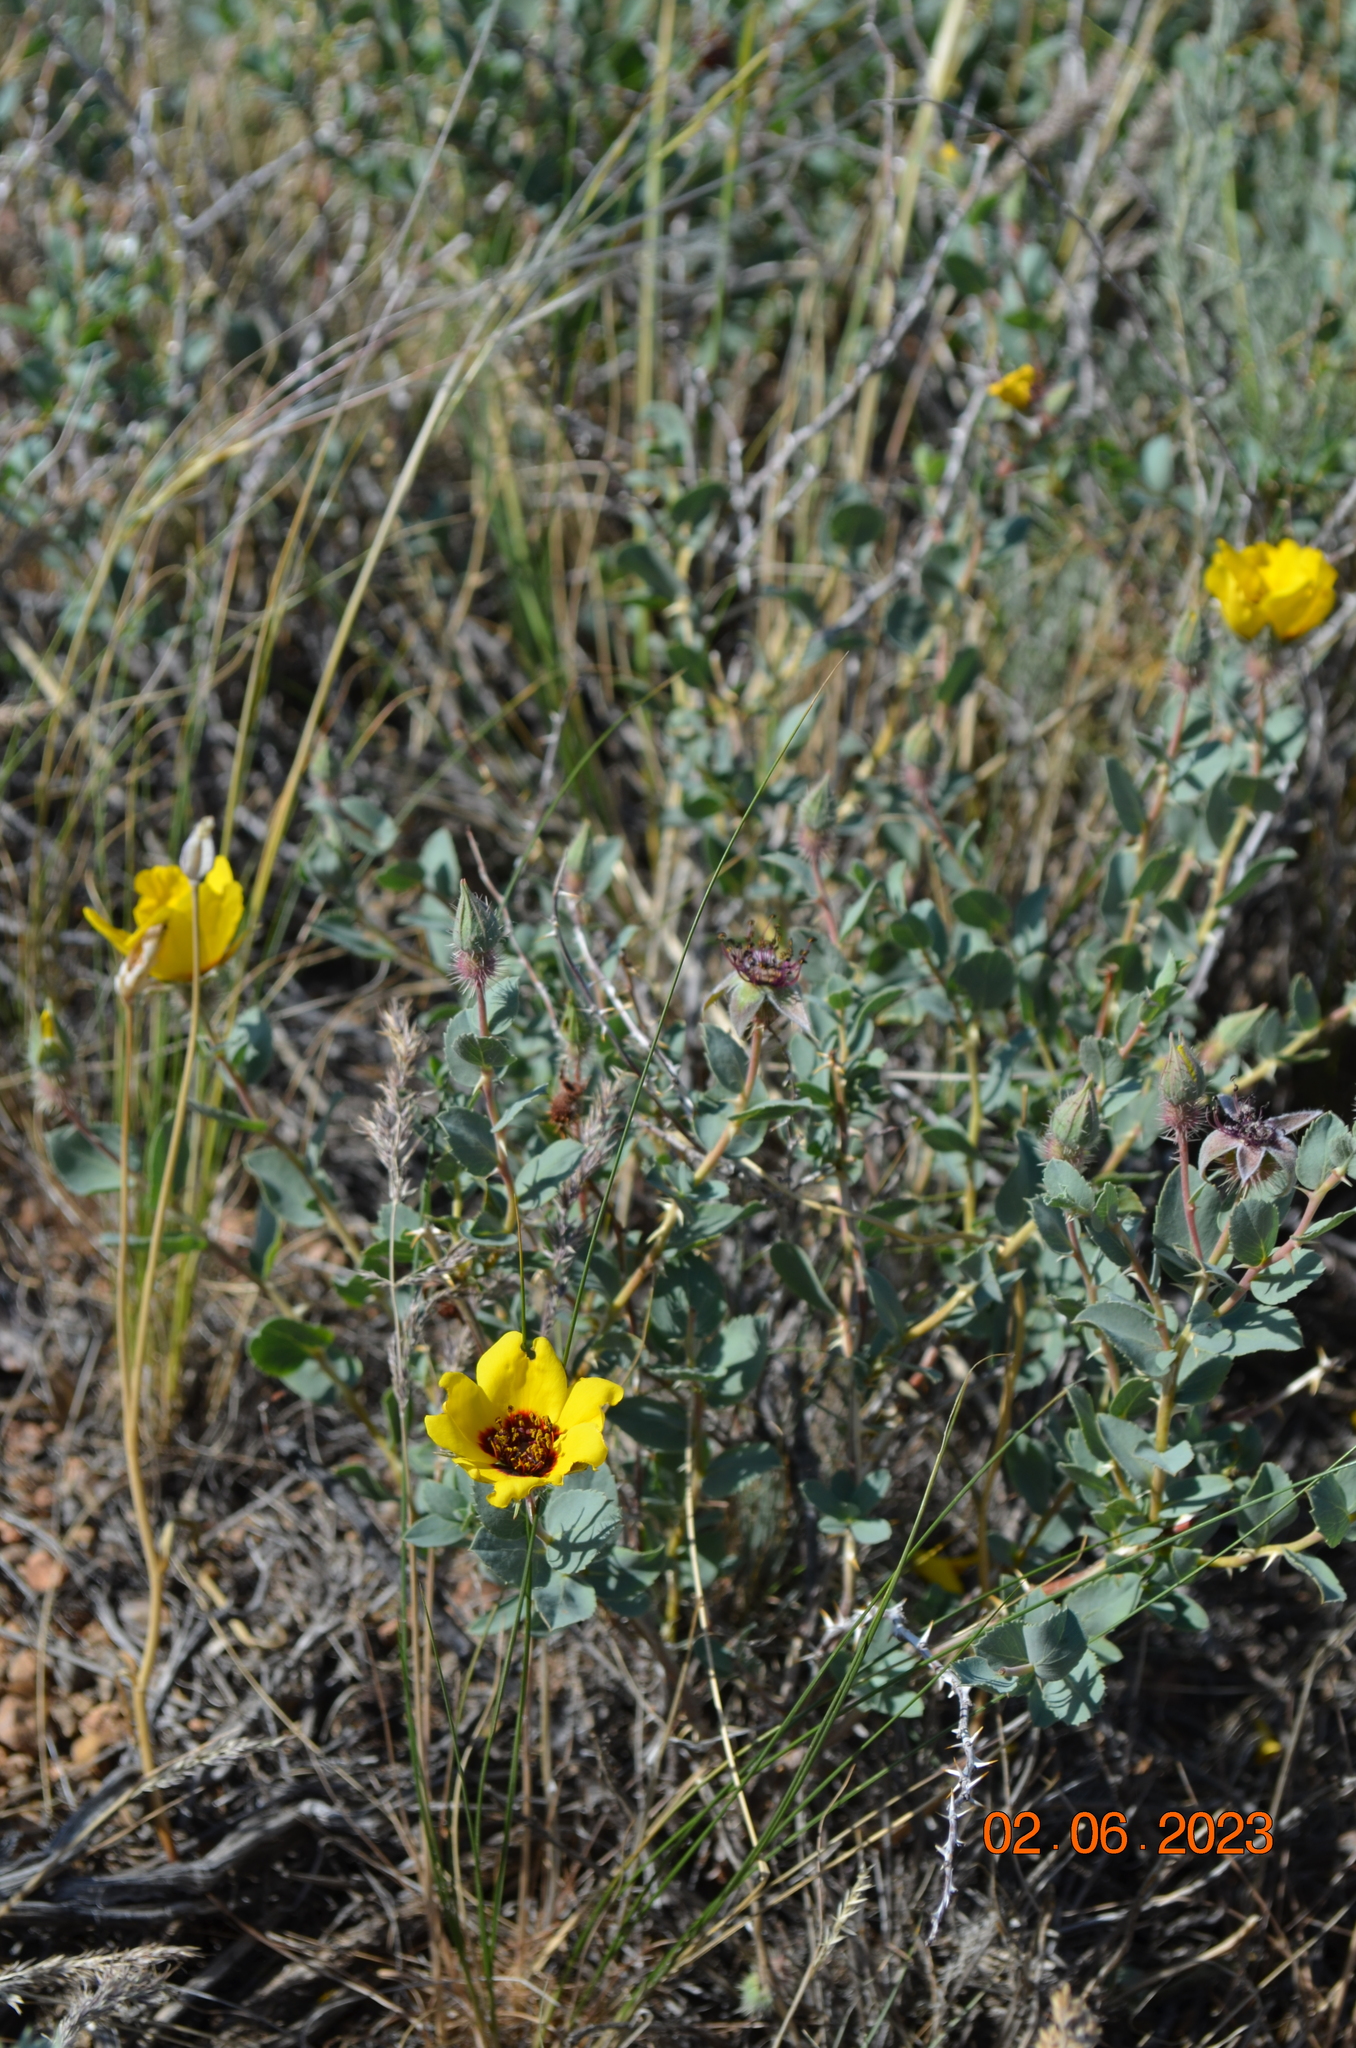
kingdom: Plantae
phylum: Tracheophyta
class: Magnoliopsida
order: Rosales
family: Rosaceae
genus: Rosa
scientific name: Rosa persica
